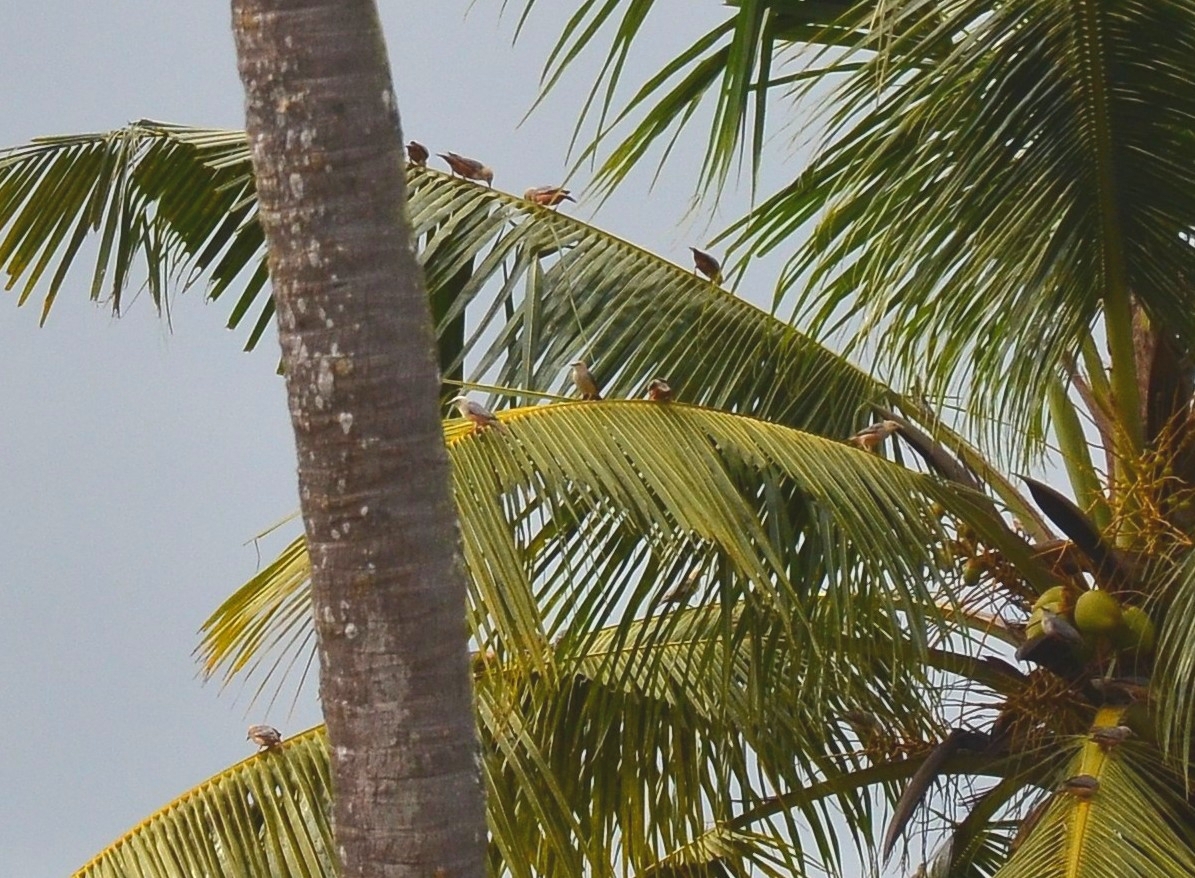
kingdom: Animalia
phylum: Chordata
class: Aves
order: Passeriformes
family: Sturnidae
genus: Sturnia
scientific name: Sturnia blythii
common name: Malabar starling
